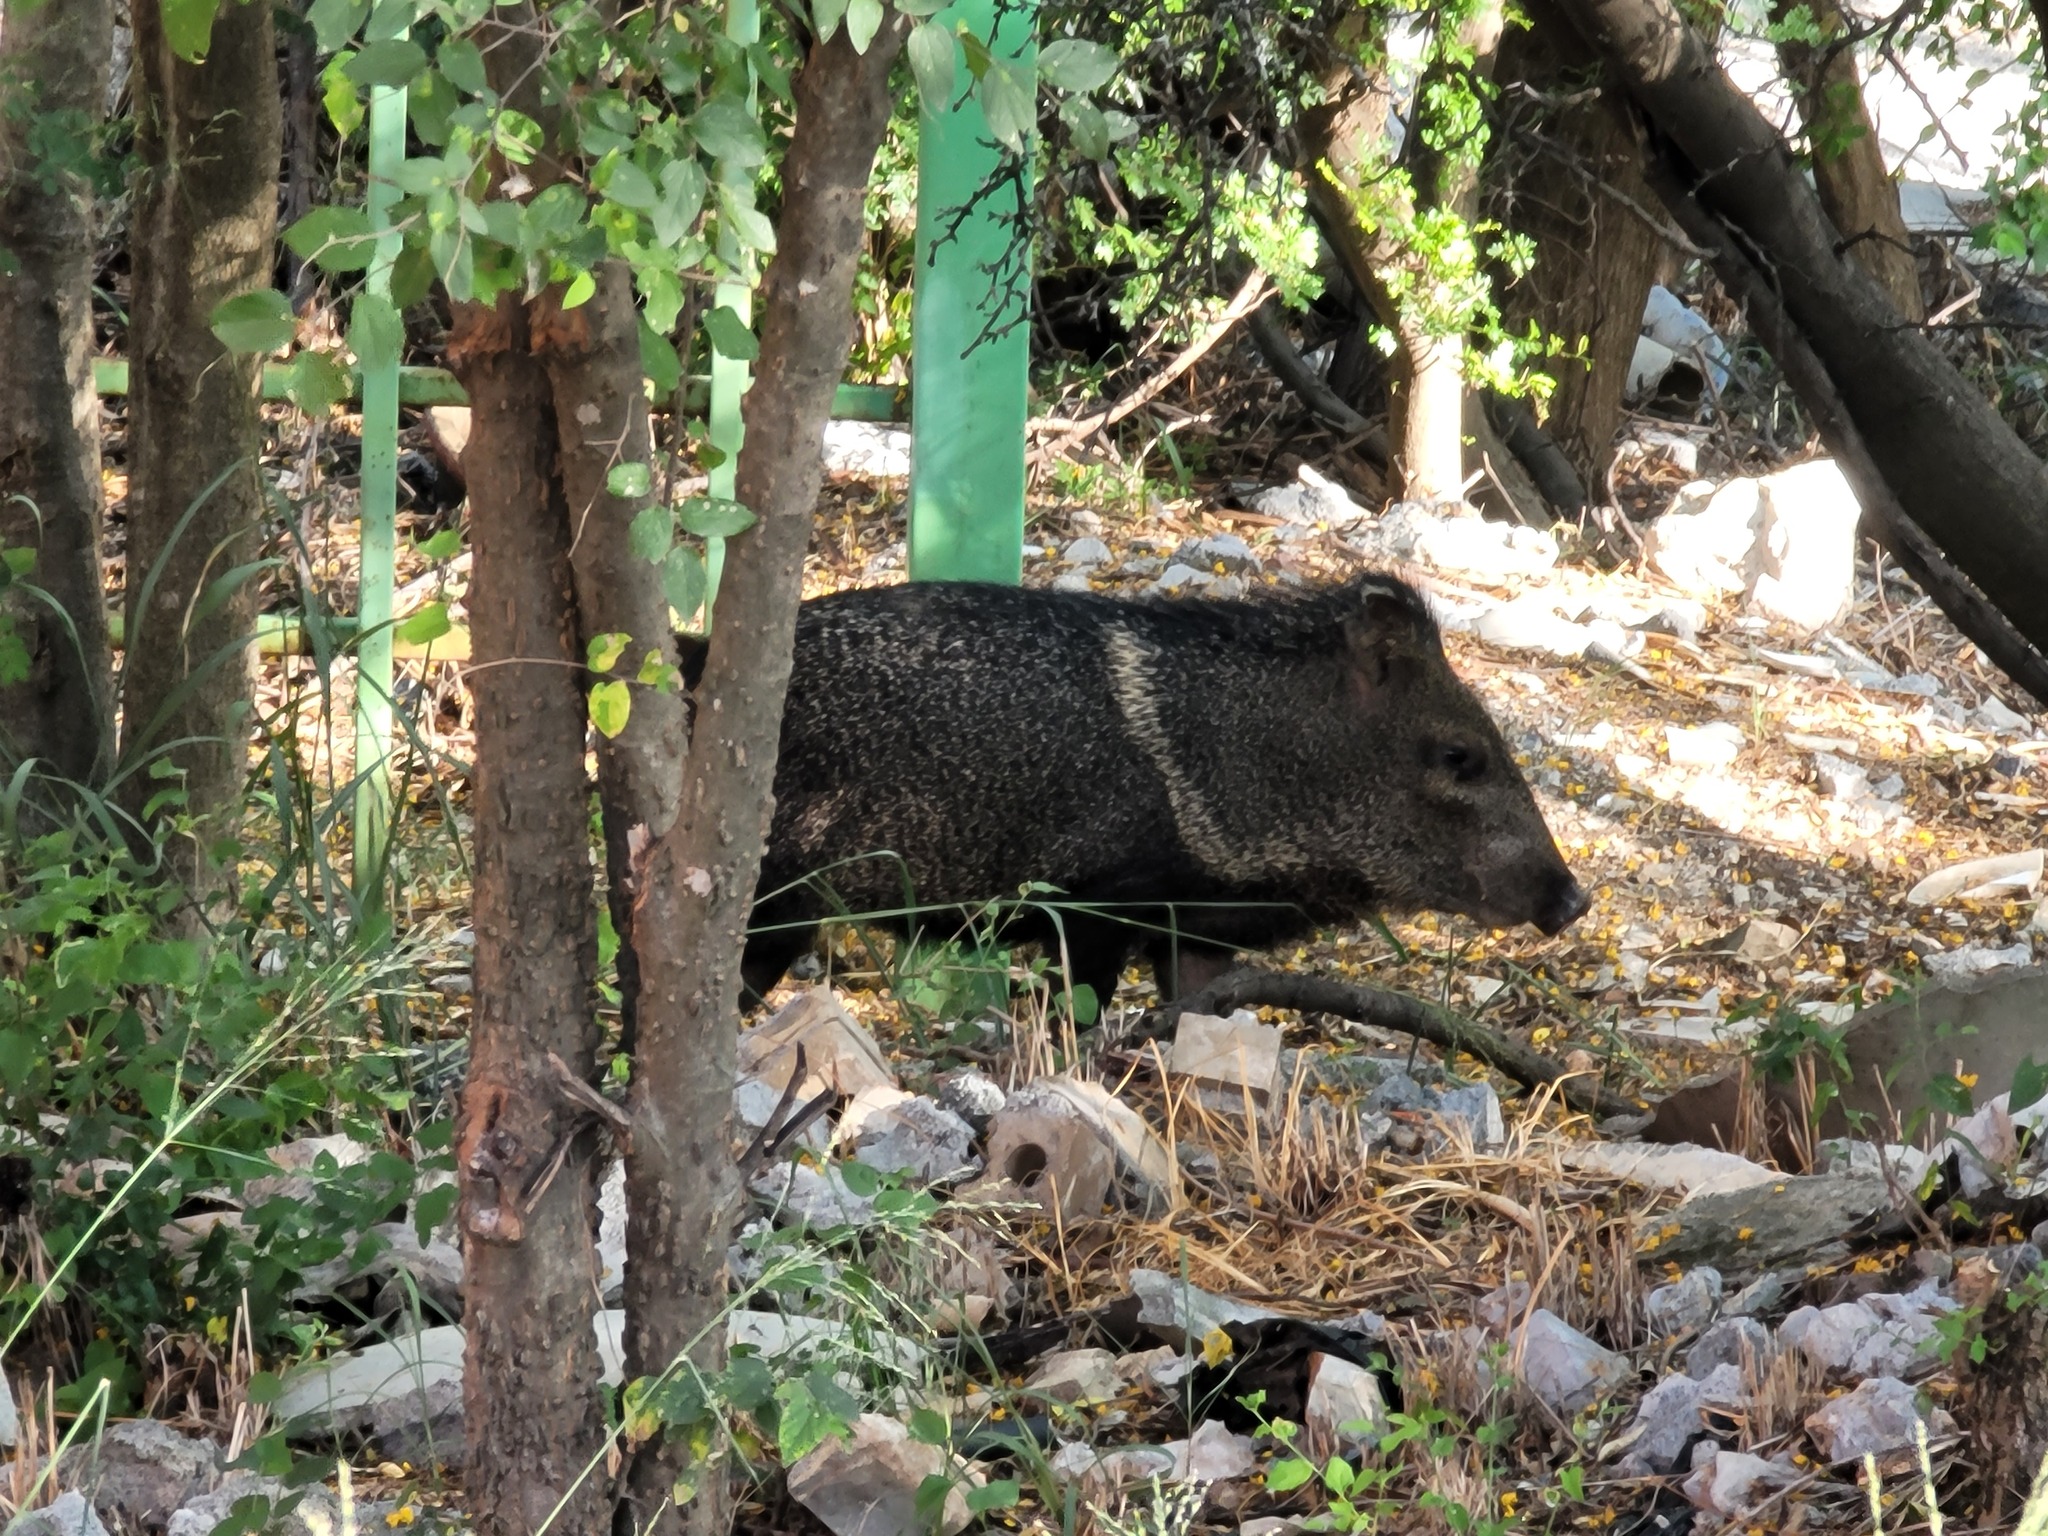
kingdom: Animalia
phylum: Chordata
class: Mammalia
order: Artiodactyla
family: Tayassuidae
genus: Pecari
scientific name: Pecari tajacu
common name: Collared peccary
